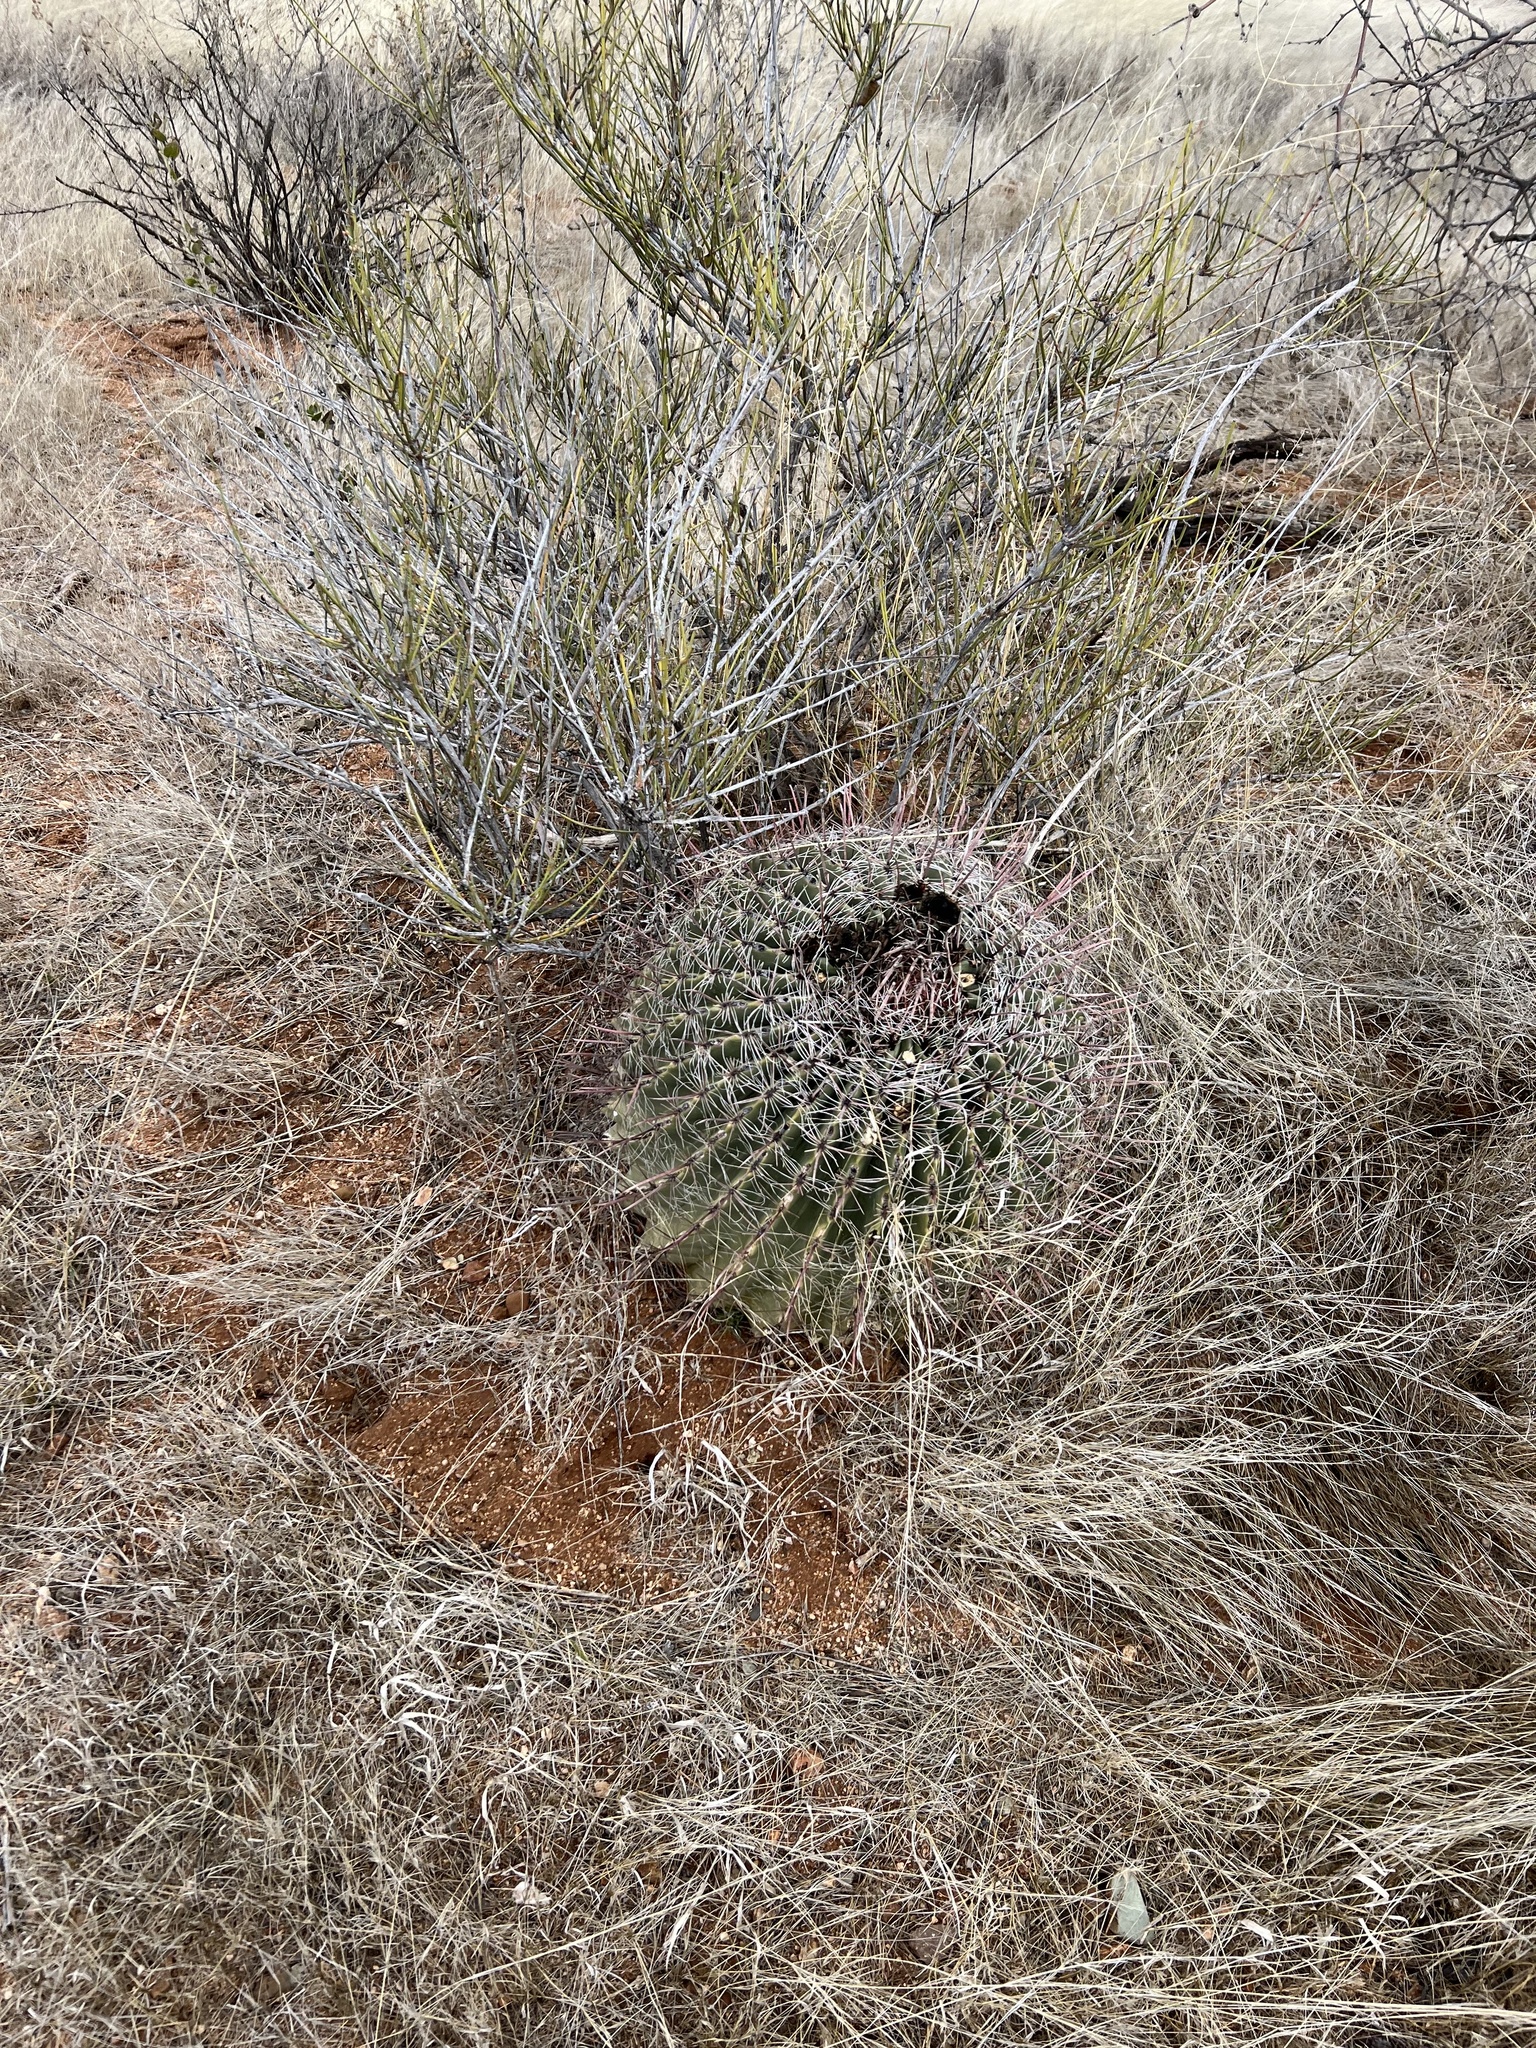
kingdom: Plantae
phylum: Tracheophyta
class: Magnoliopsida
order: Caryophyllales
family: Cactaceae
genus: Ferocactus
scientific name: Ferocactus wislizeni
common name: Candy barrel cactus
